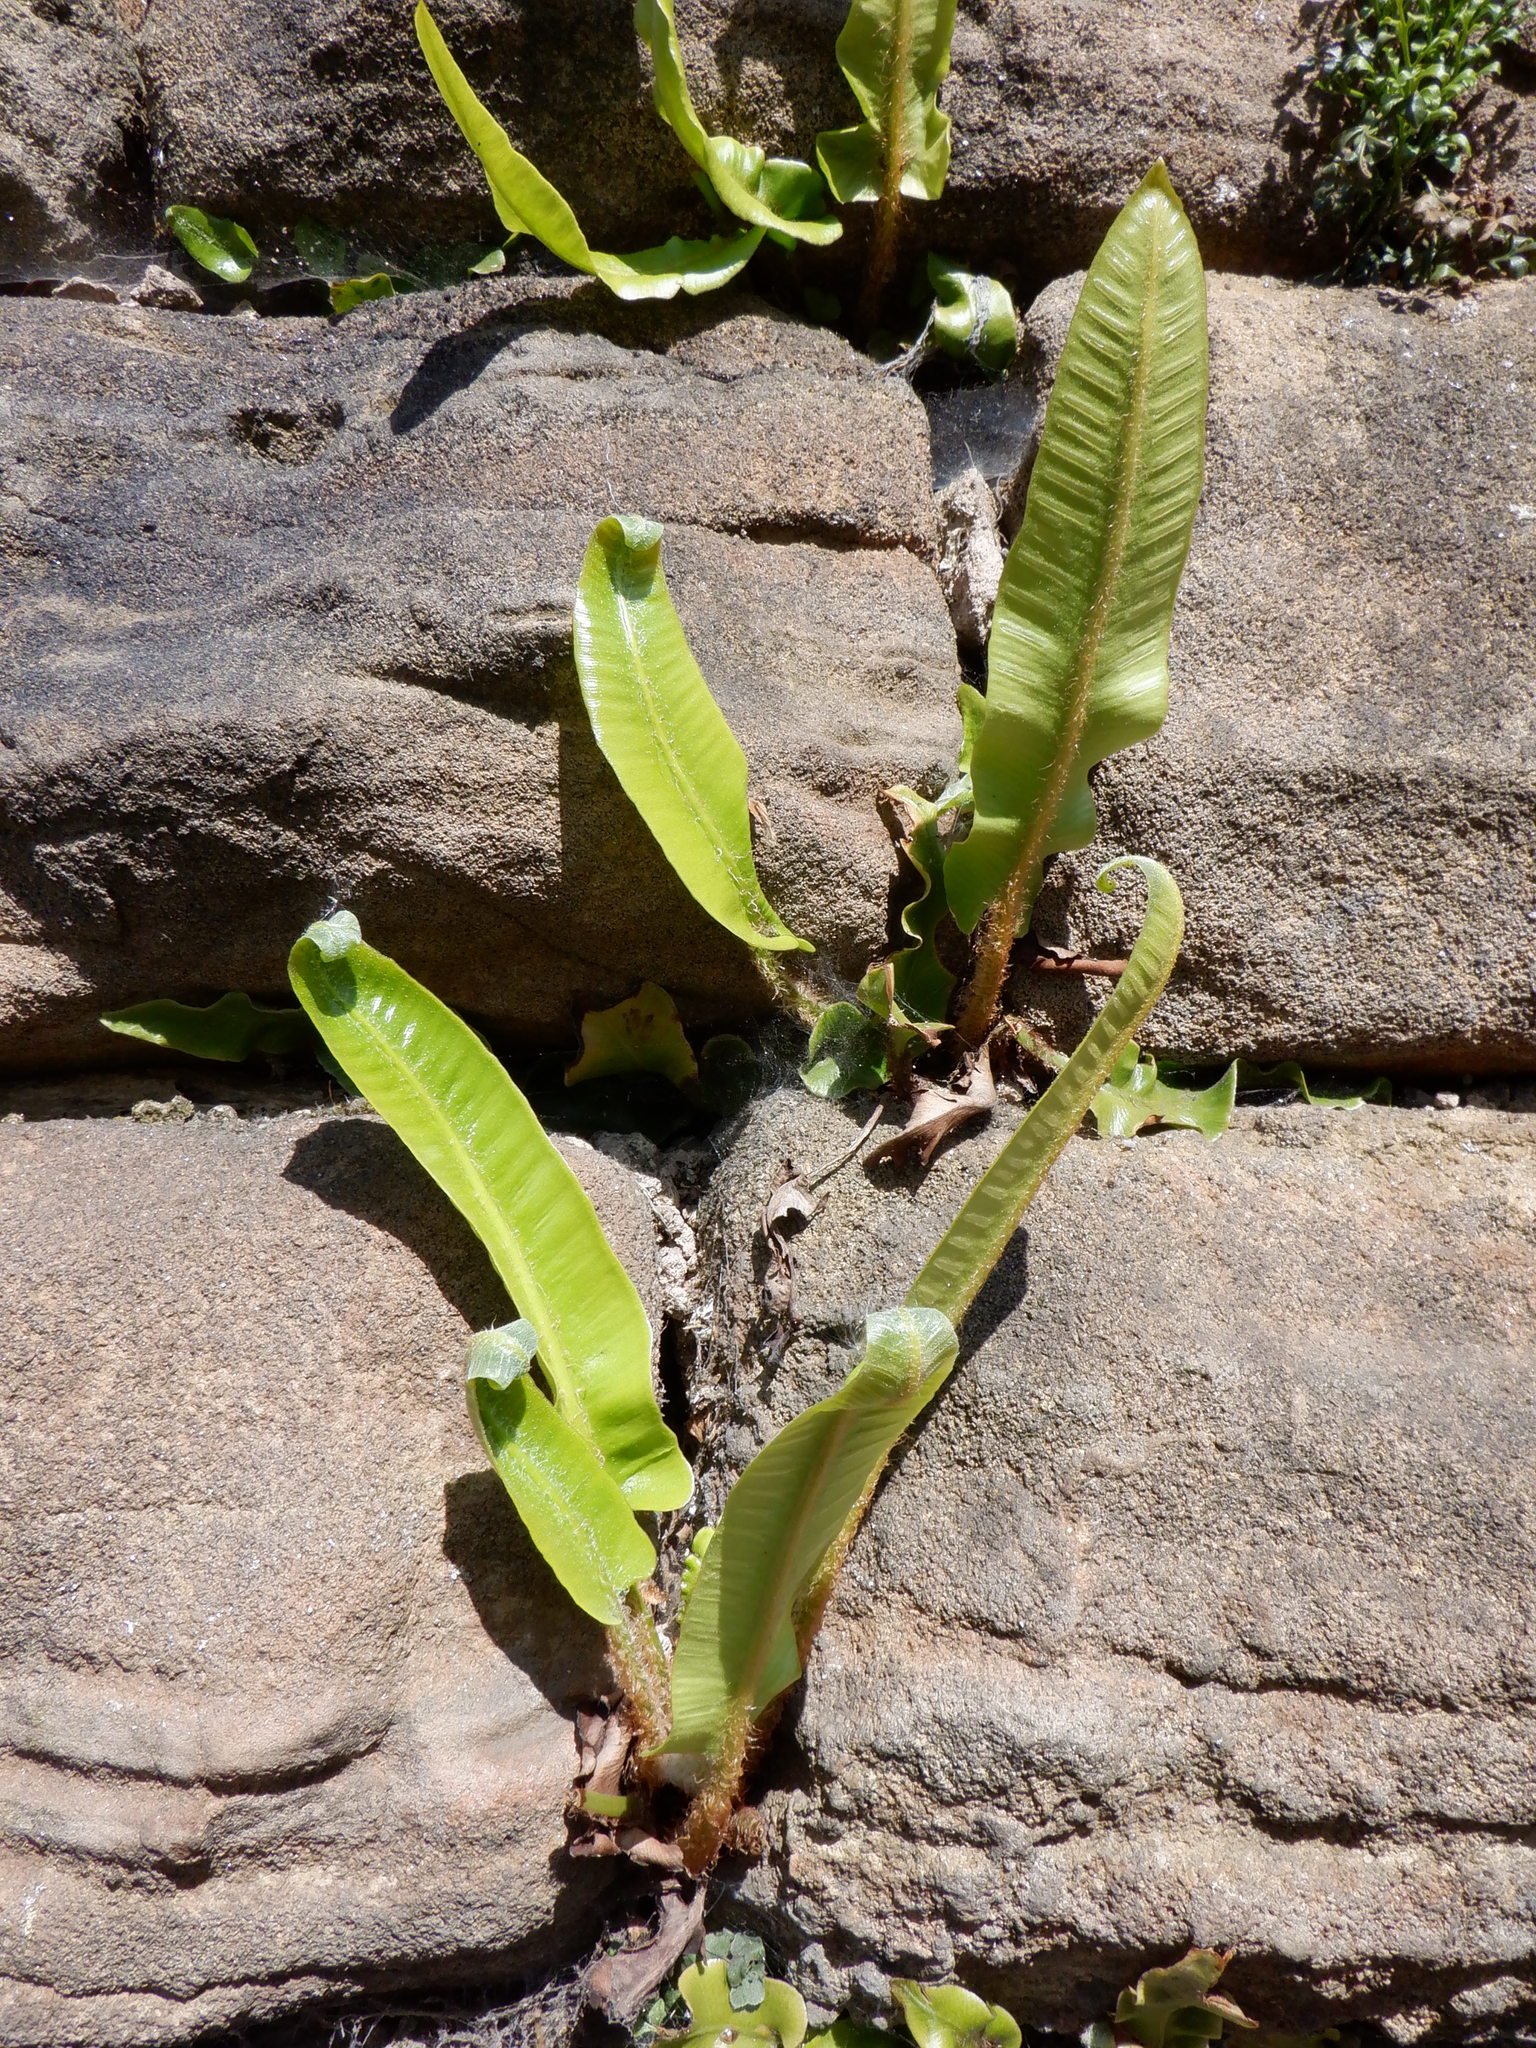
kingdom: Plantae
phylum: Tracheophyta
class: Polypodiopsida
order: Polypodiales
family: Aspleniaceae
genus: Asplenium
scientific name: Asplenium scolopendrium
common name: Hart's-tongue fern
